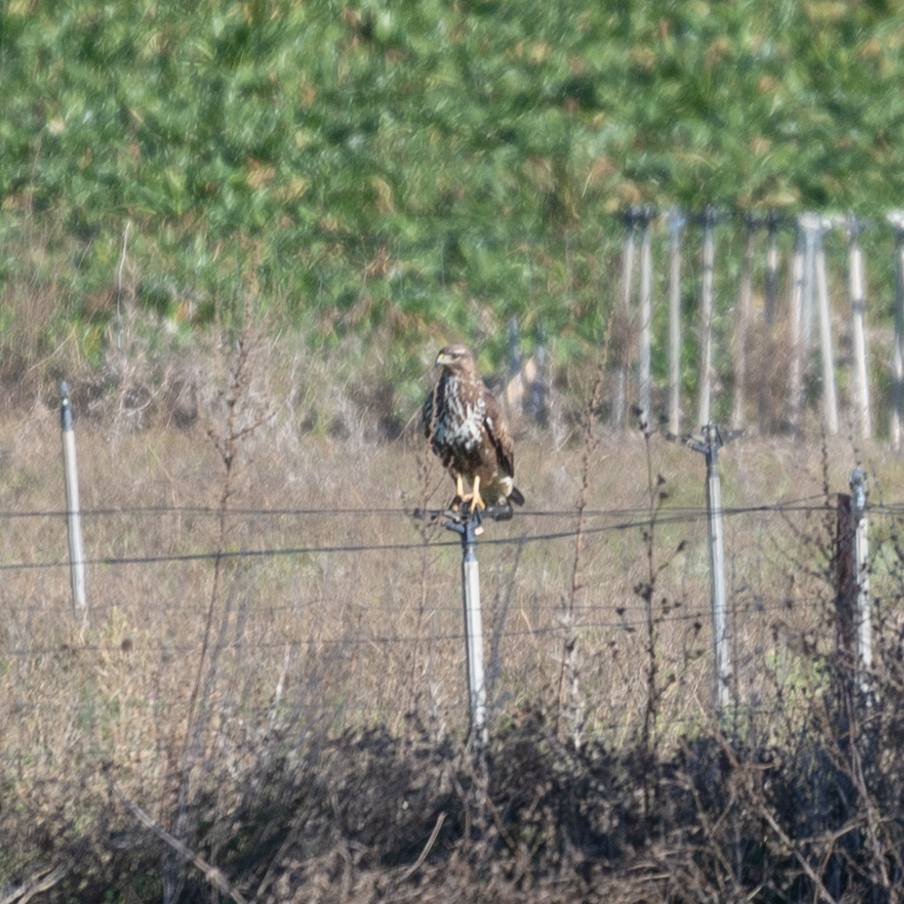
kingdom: Animalia
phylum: Chordata
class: Aves
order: Accipitriformes
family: Accipitridae
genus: Buteo
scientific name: Buteo buteo
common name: Common buzzard
